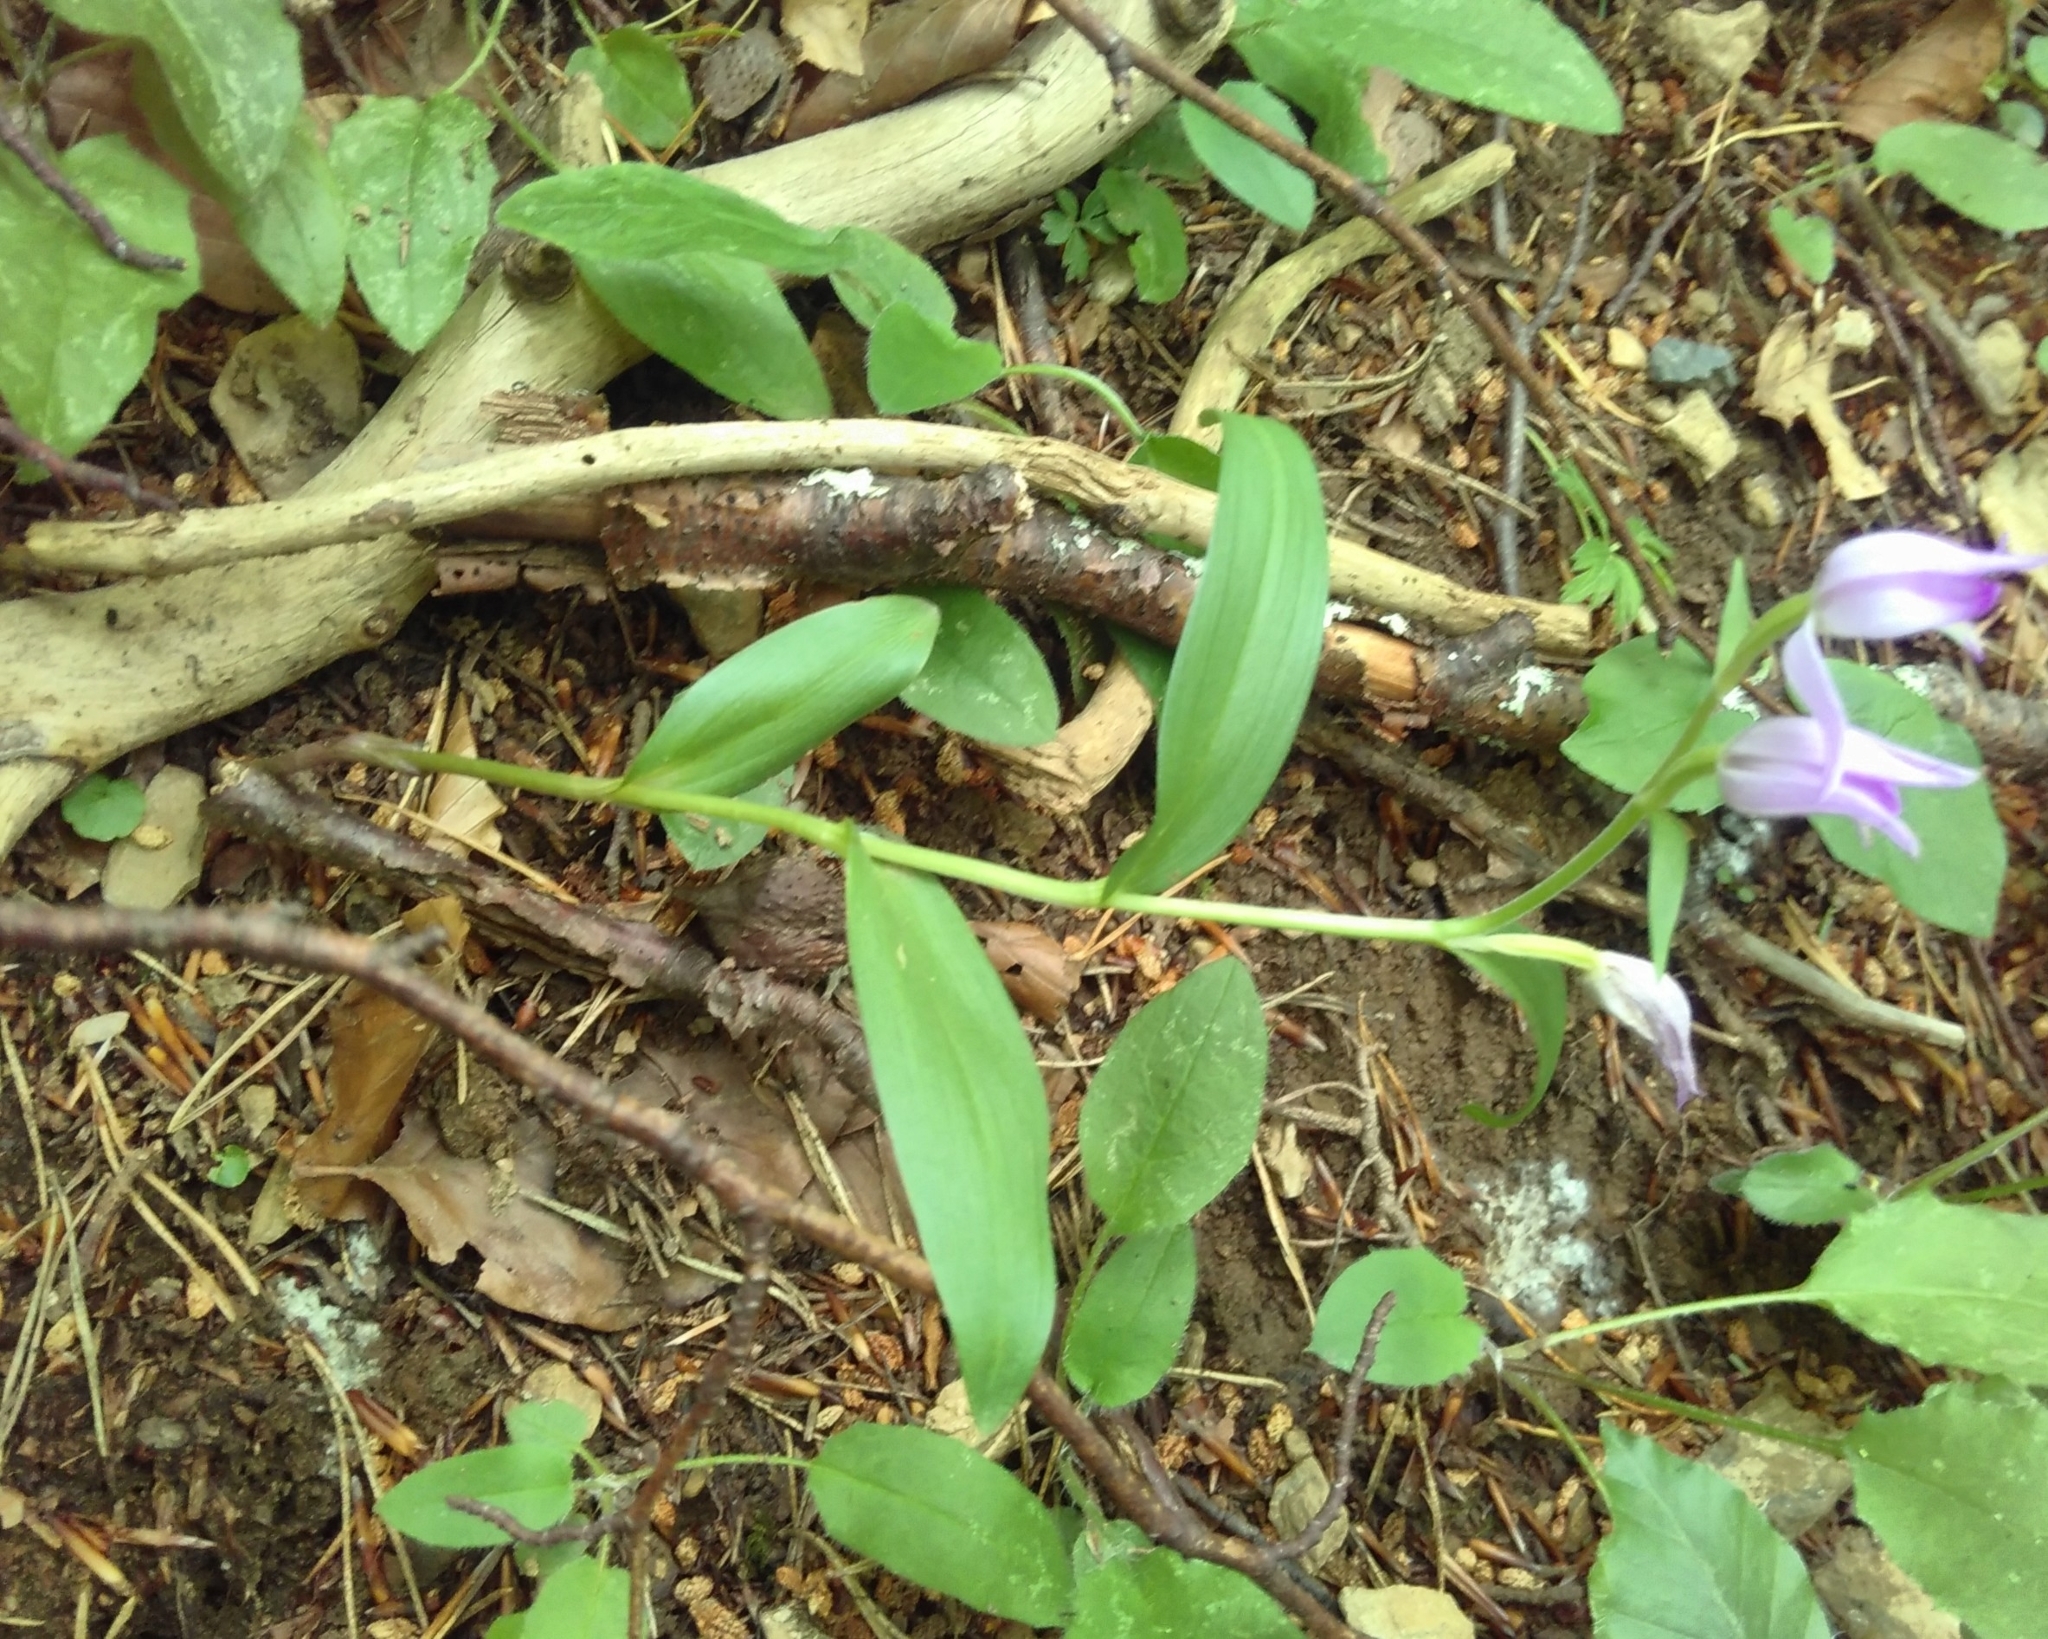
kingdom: Plantae
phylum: Tracheophyta
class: Liliopsida
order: Asparagales
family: Orchidaceae
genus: Cephalanthera
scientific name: Cephalanthera rubra
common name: Red helleborine
